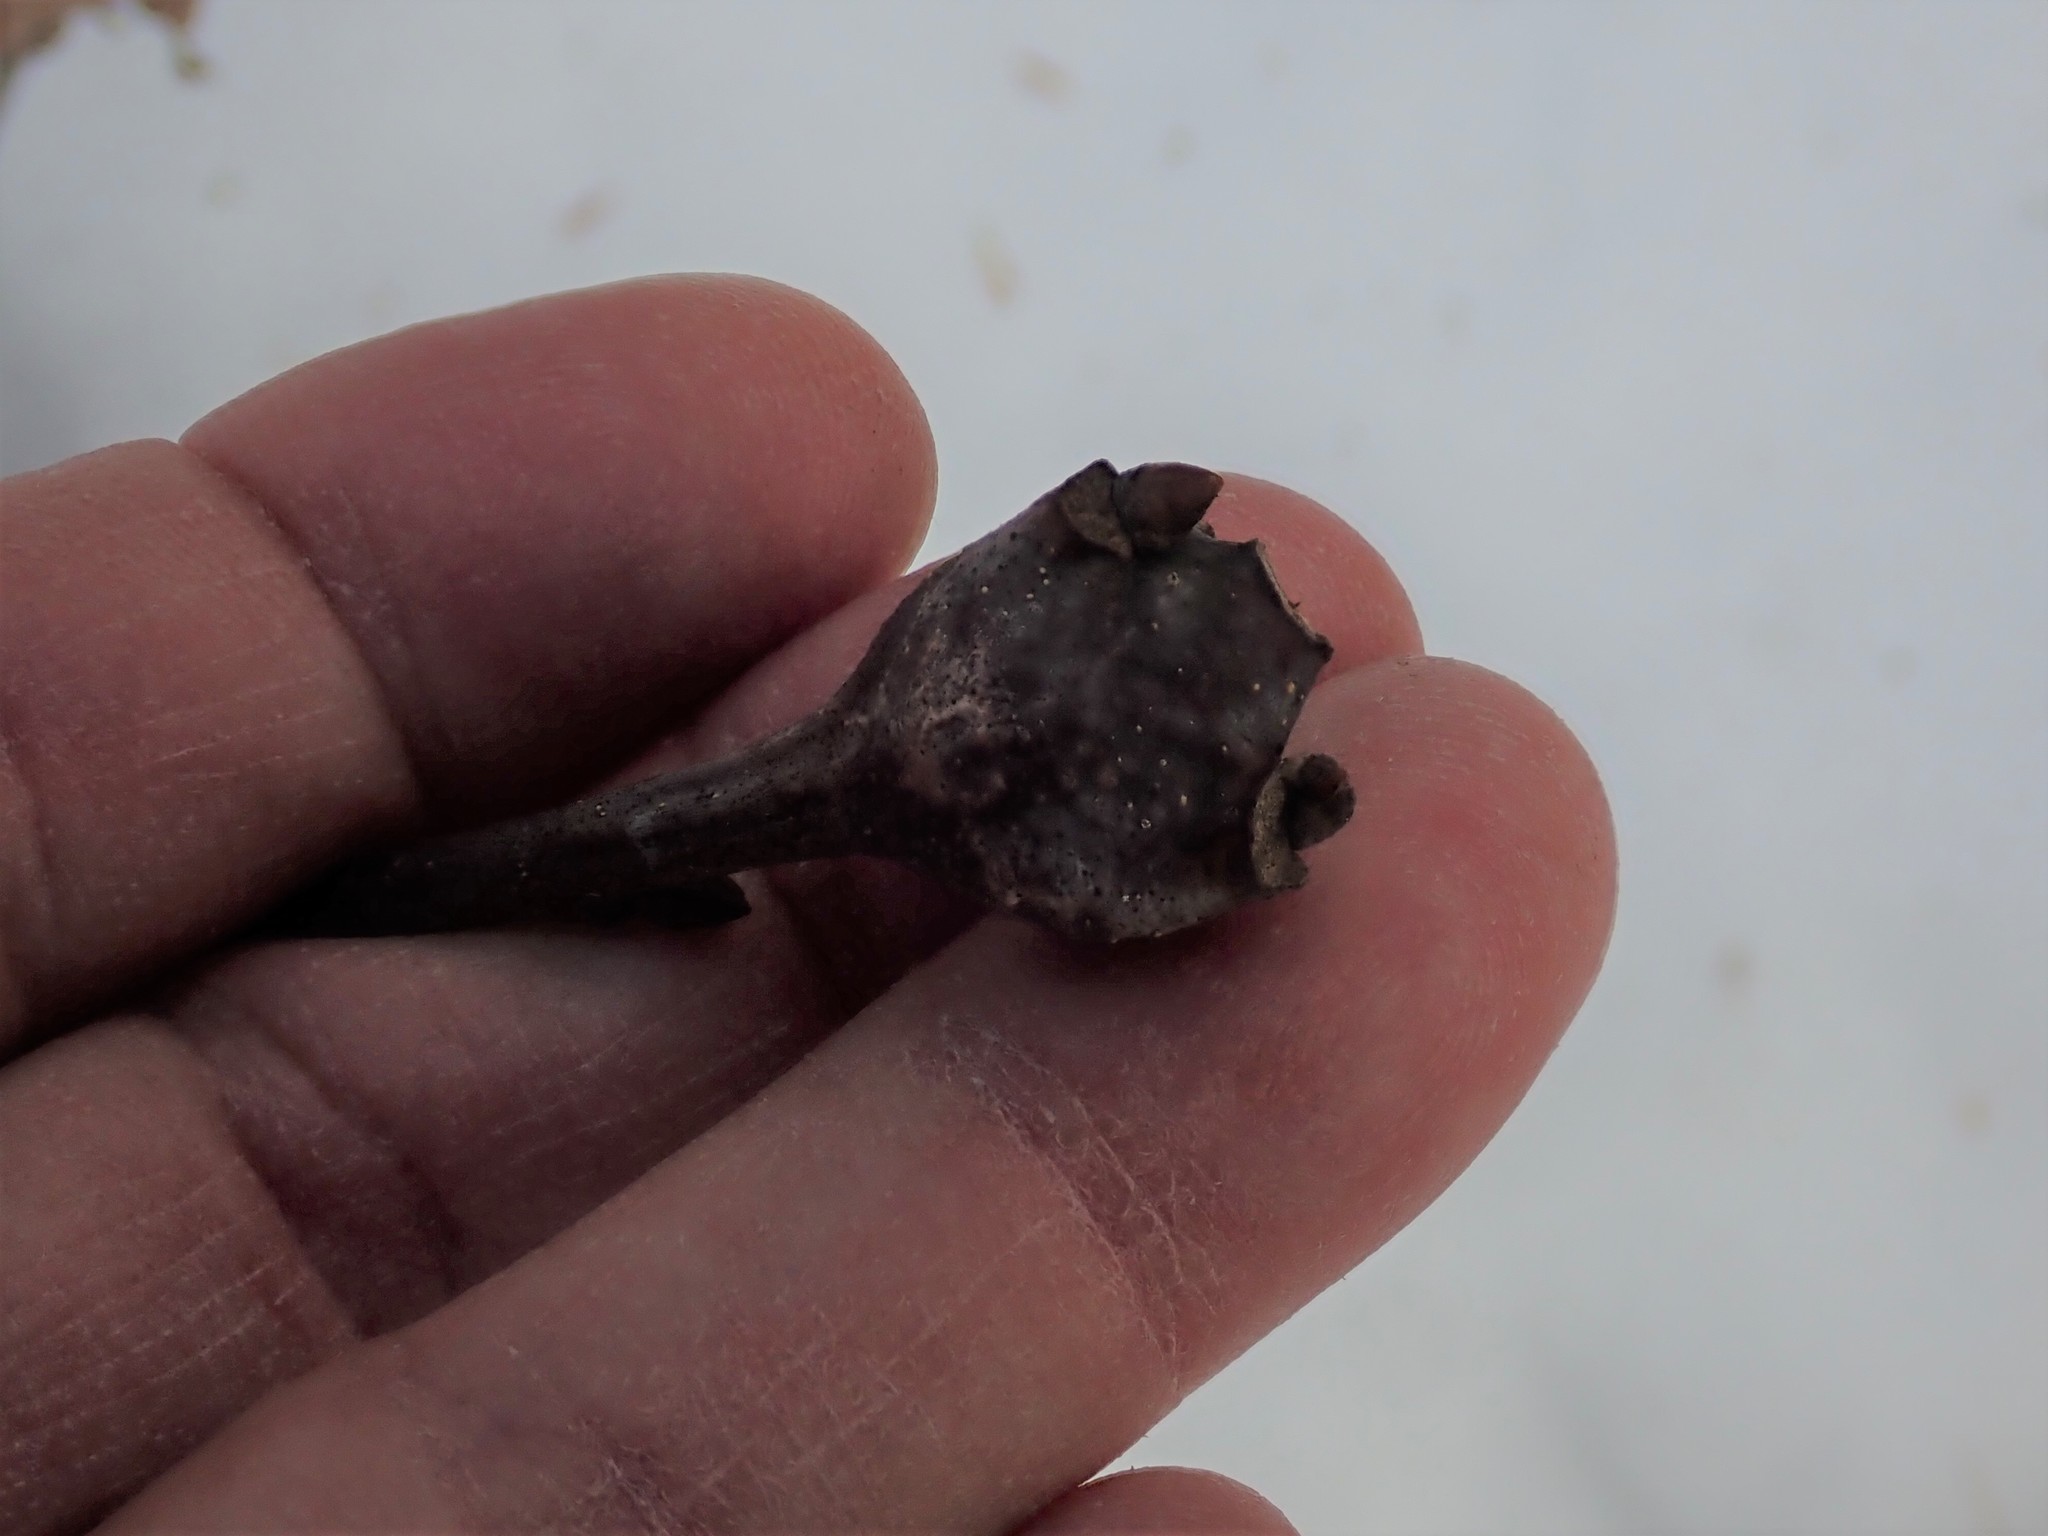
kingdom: Animalia
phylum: Arthropoda
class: Insecta
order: Hymenoptera
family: Cynipidae
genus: Callirhytis
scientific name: Callirhytis clavula
